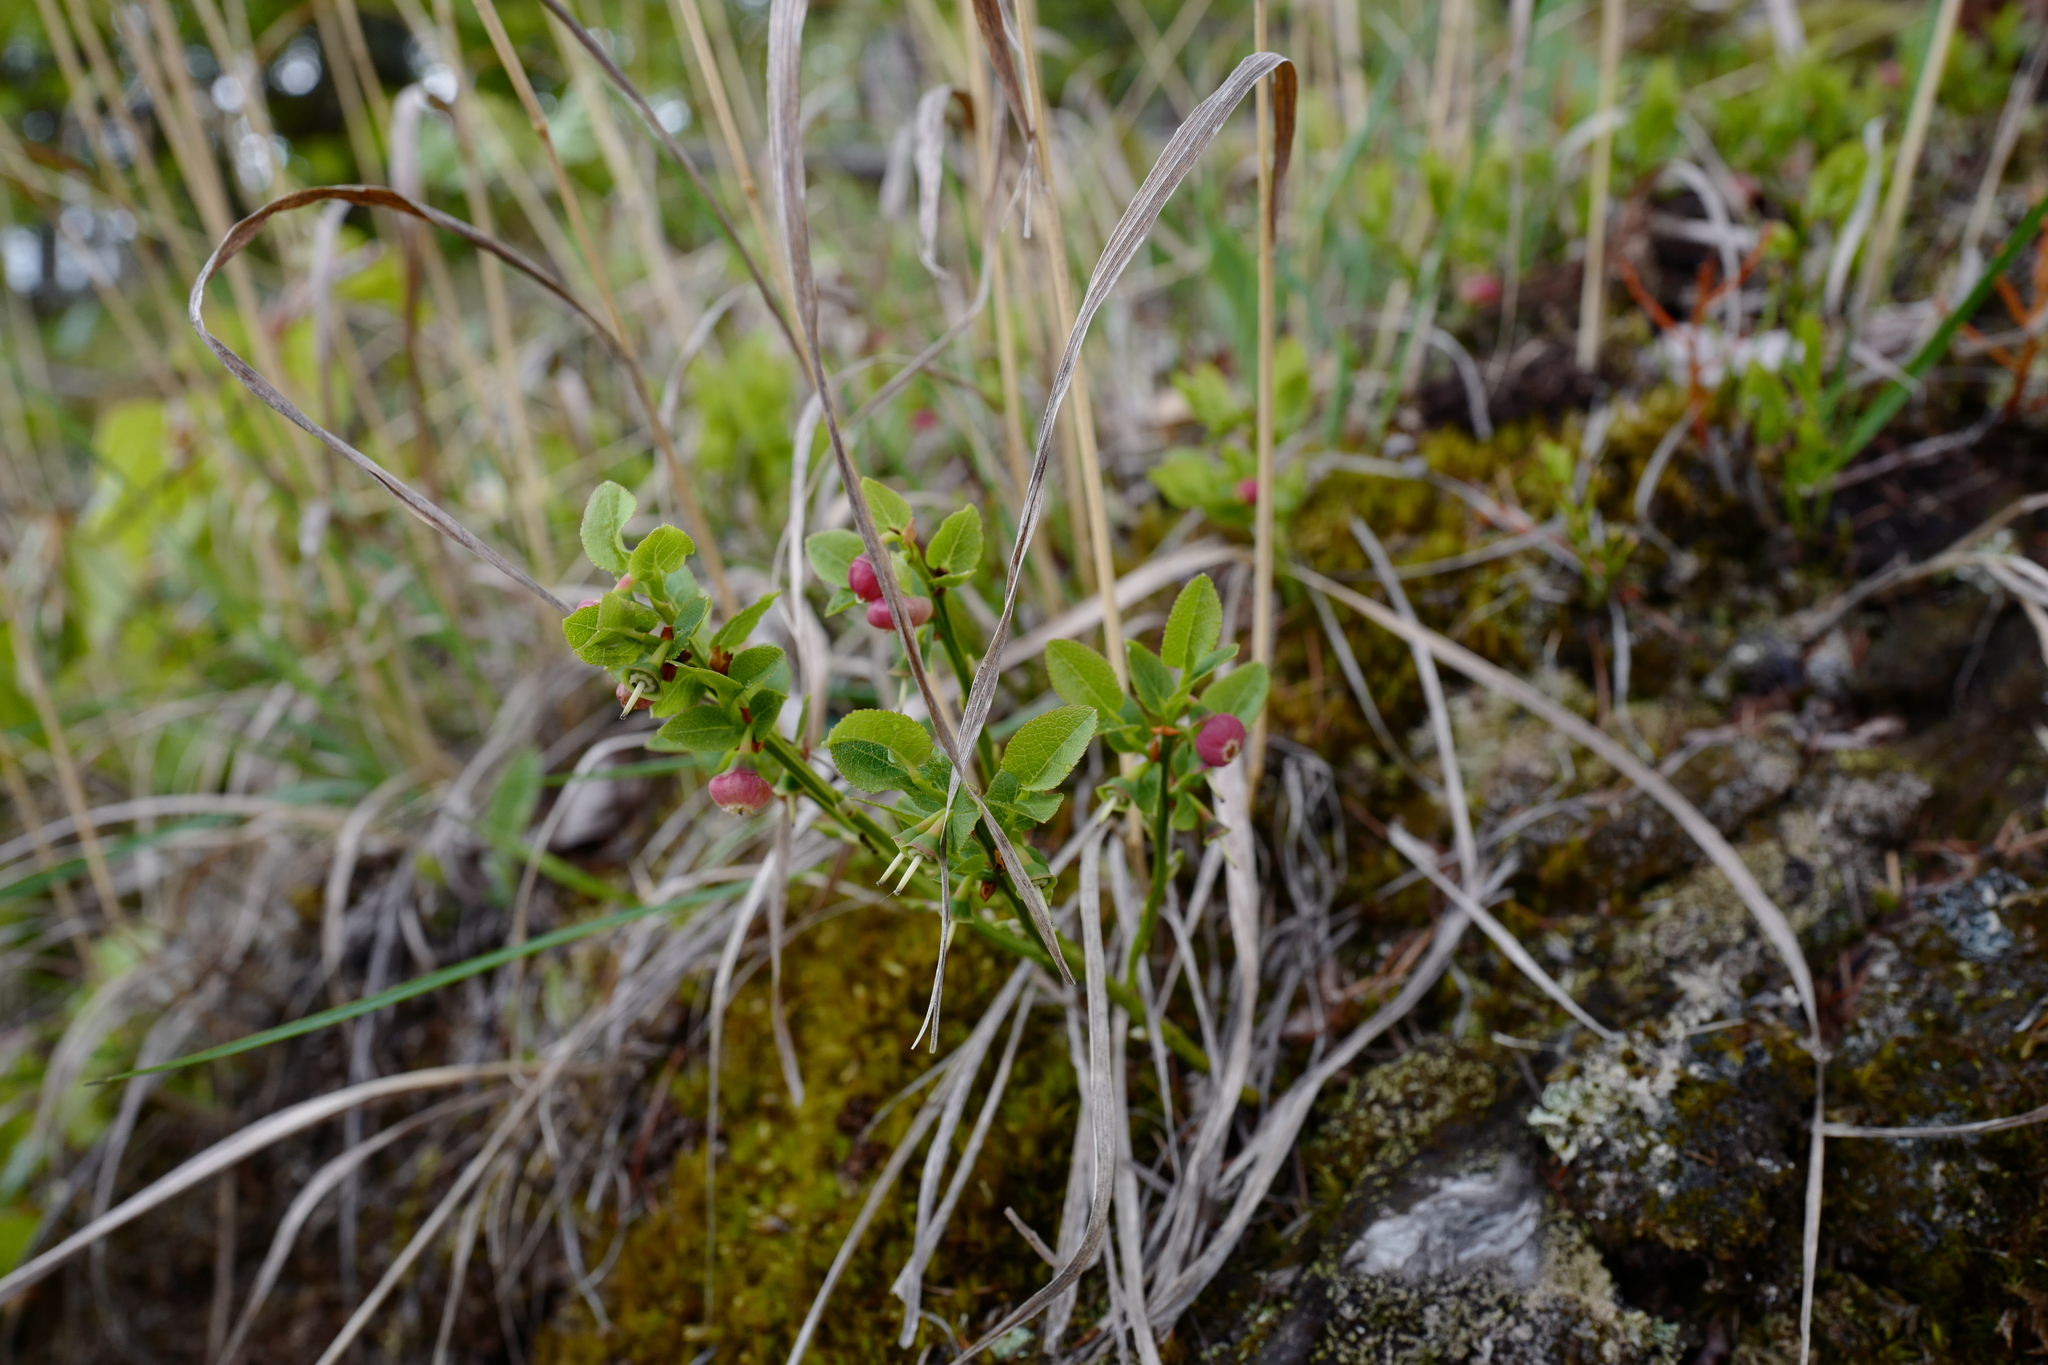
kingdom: Plantae
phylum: Tracheophyta
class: Magnoliopsida
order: Ericales
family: Ericaceae
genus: Vaccinium
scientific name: Vaccinium myrtillus
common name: Bilberry
